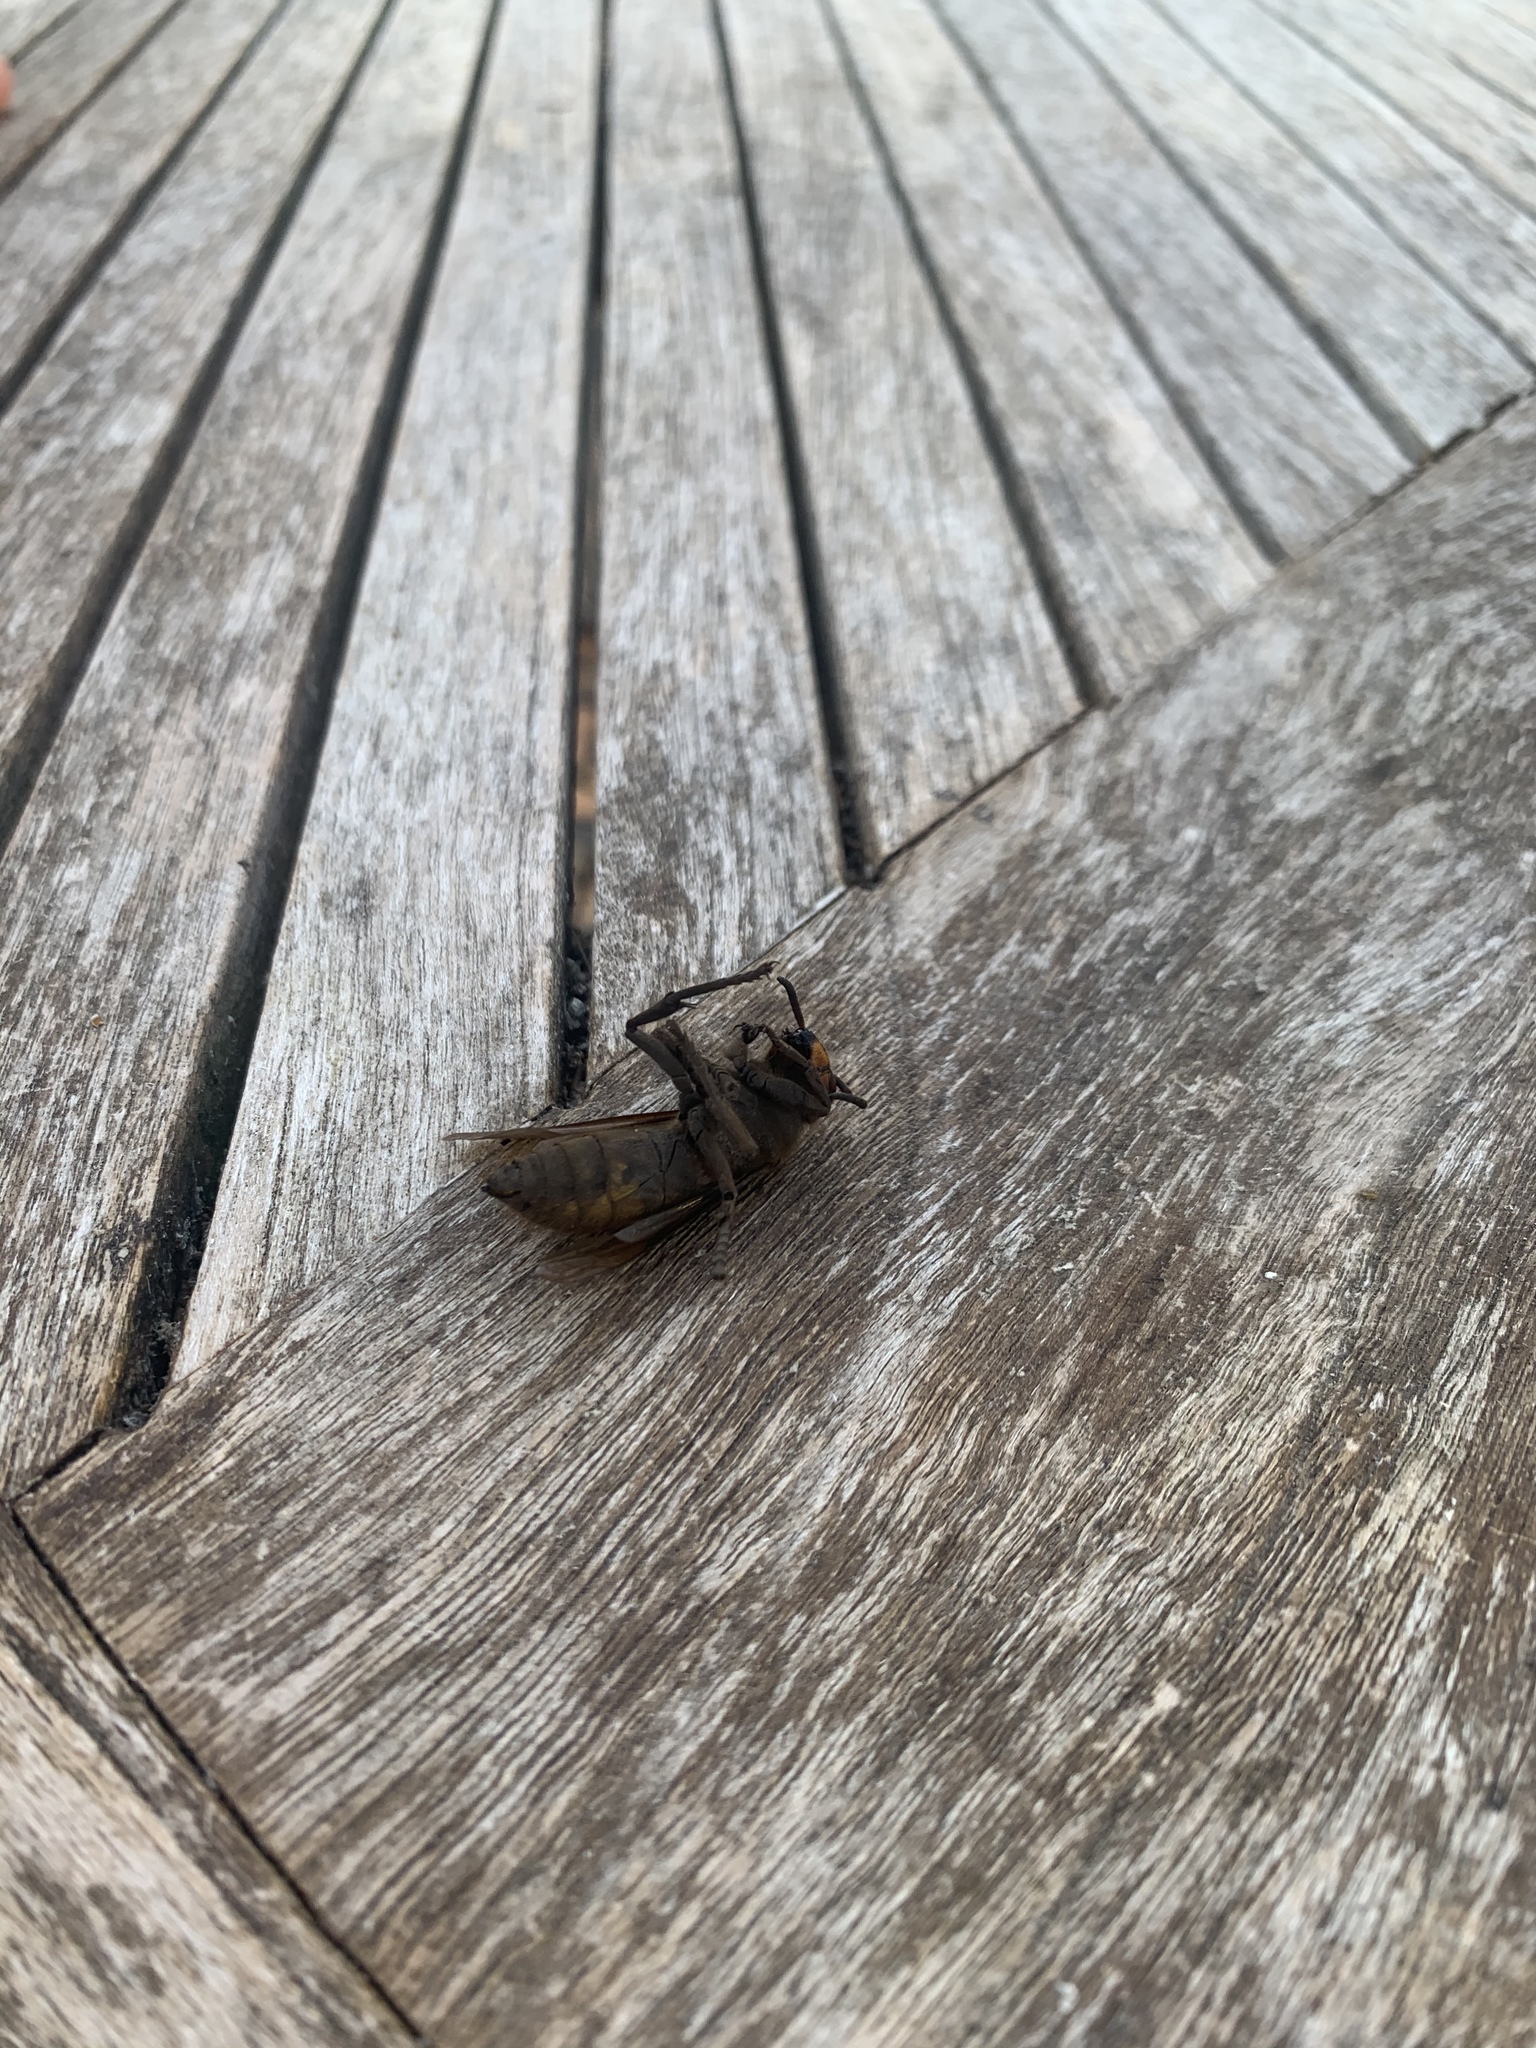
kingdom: Animalia
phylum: Arthropoda
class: Insecta
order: Hymenoptera
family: Vespidae
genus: Vespa
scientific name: Vespa crabro
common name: Hornet
